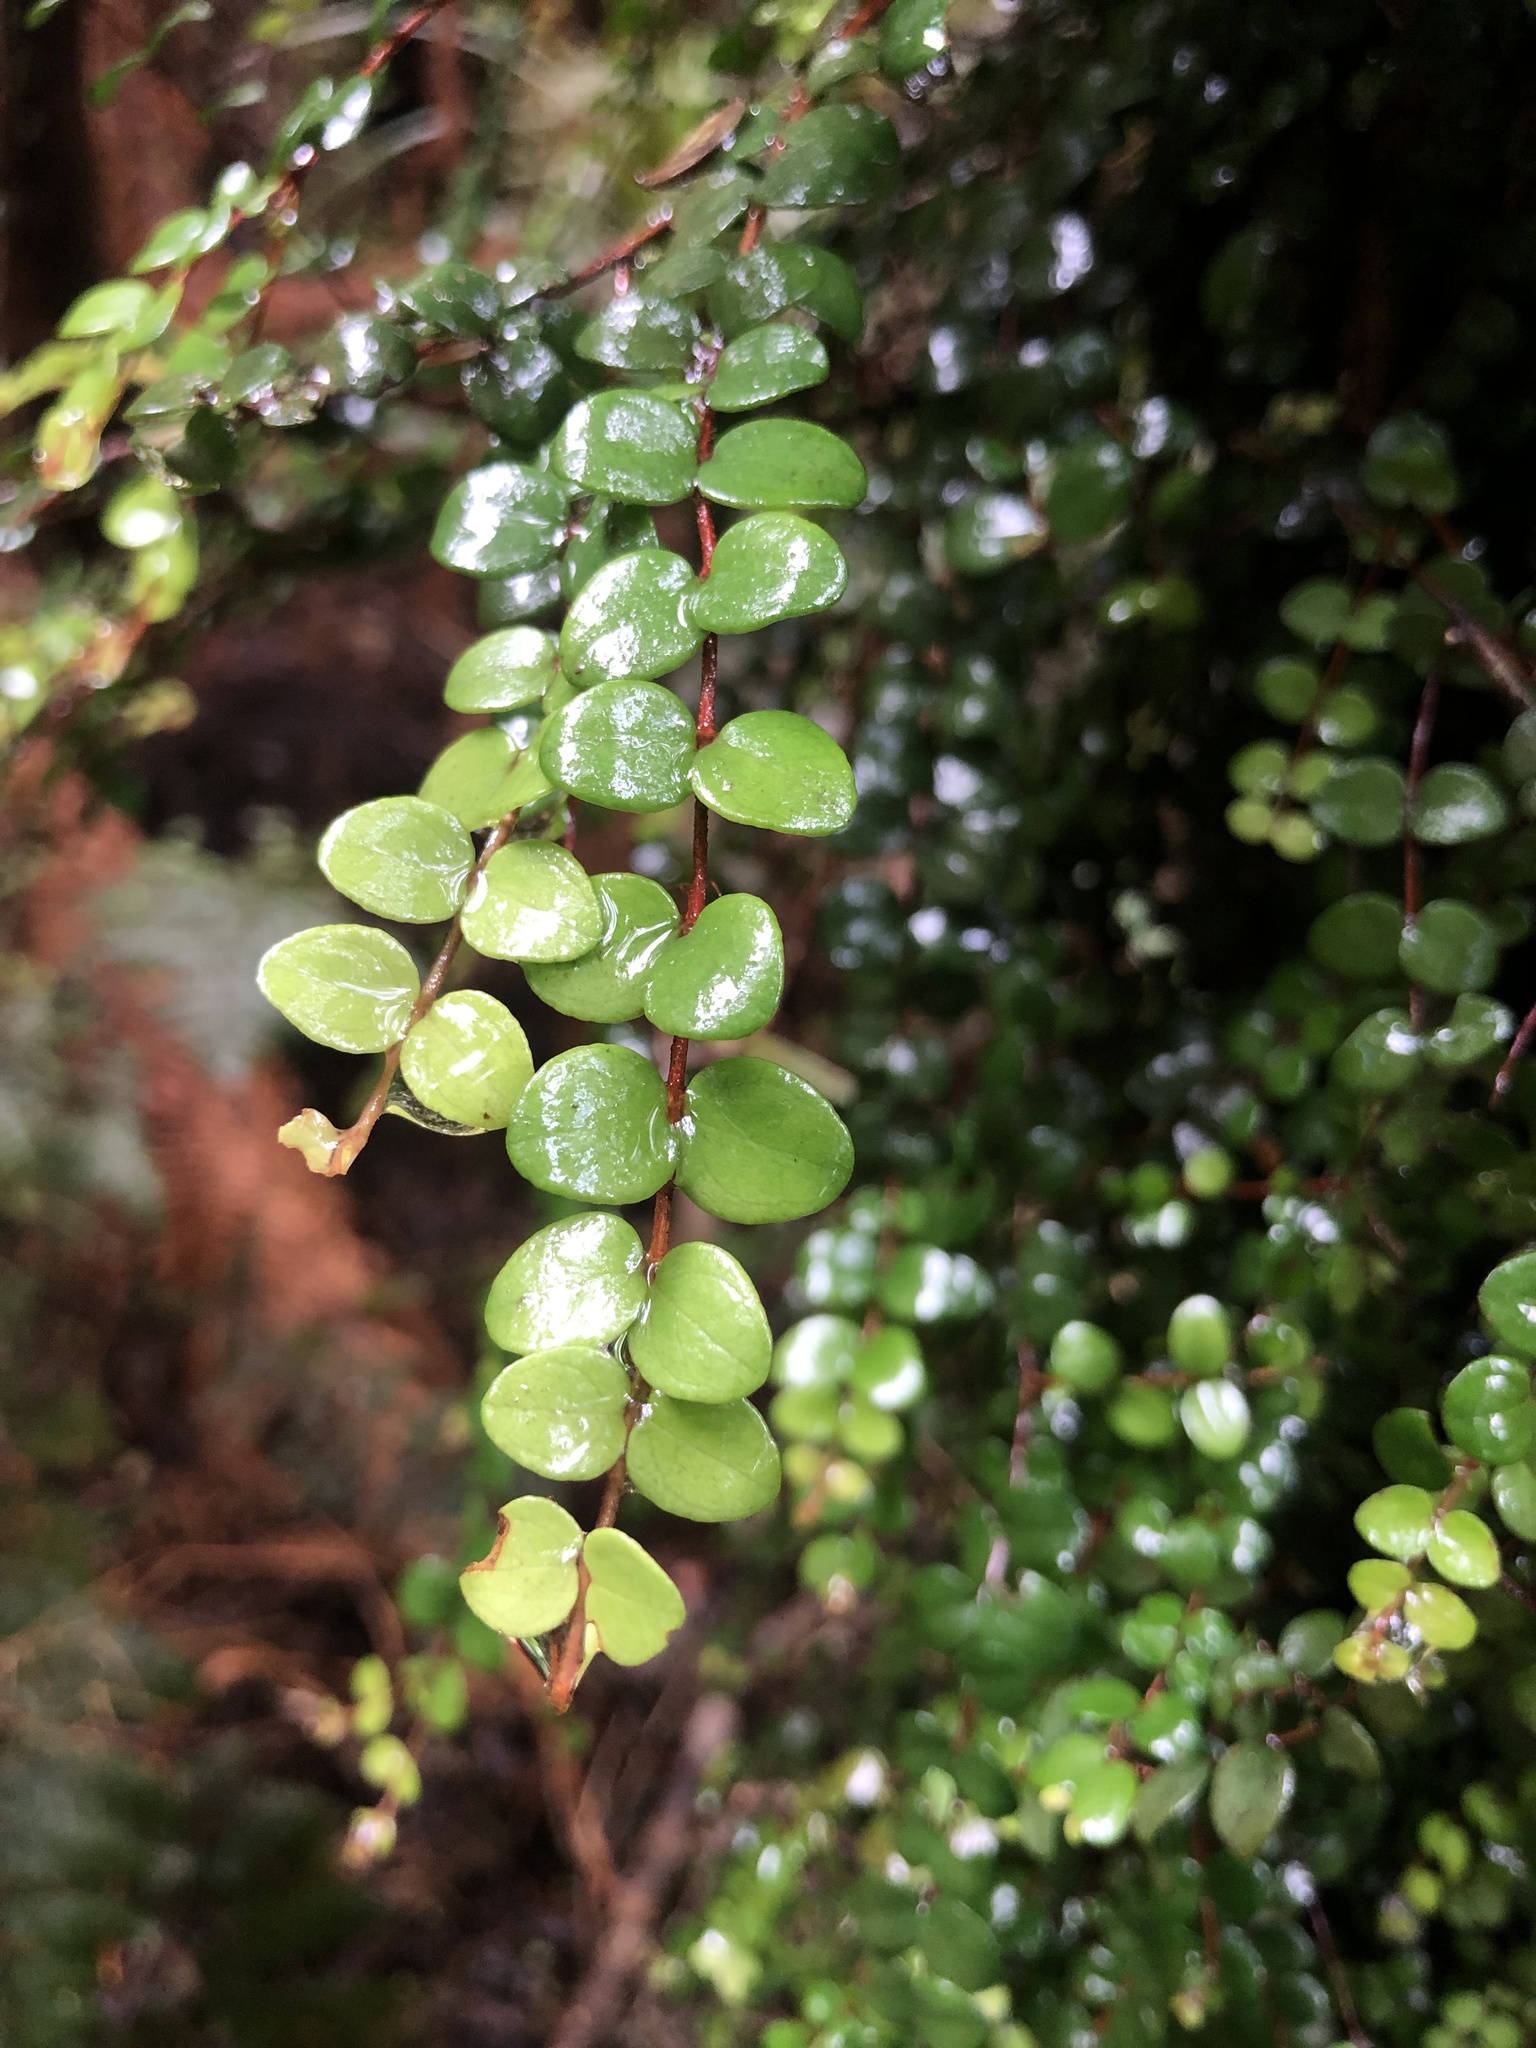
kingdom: Plantae
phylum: Tracheophyta
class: Magnoliopsida
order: Myrtales
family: Myrtaceae
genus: Metrosideros
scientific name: Metrosideros perforata
